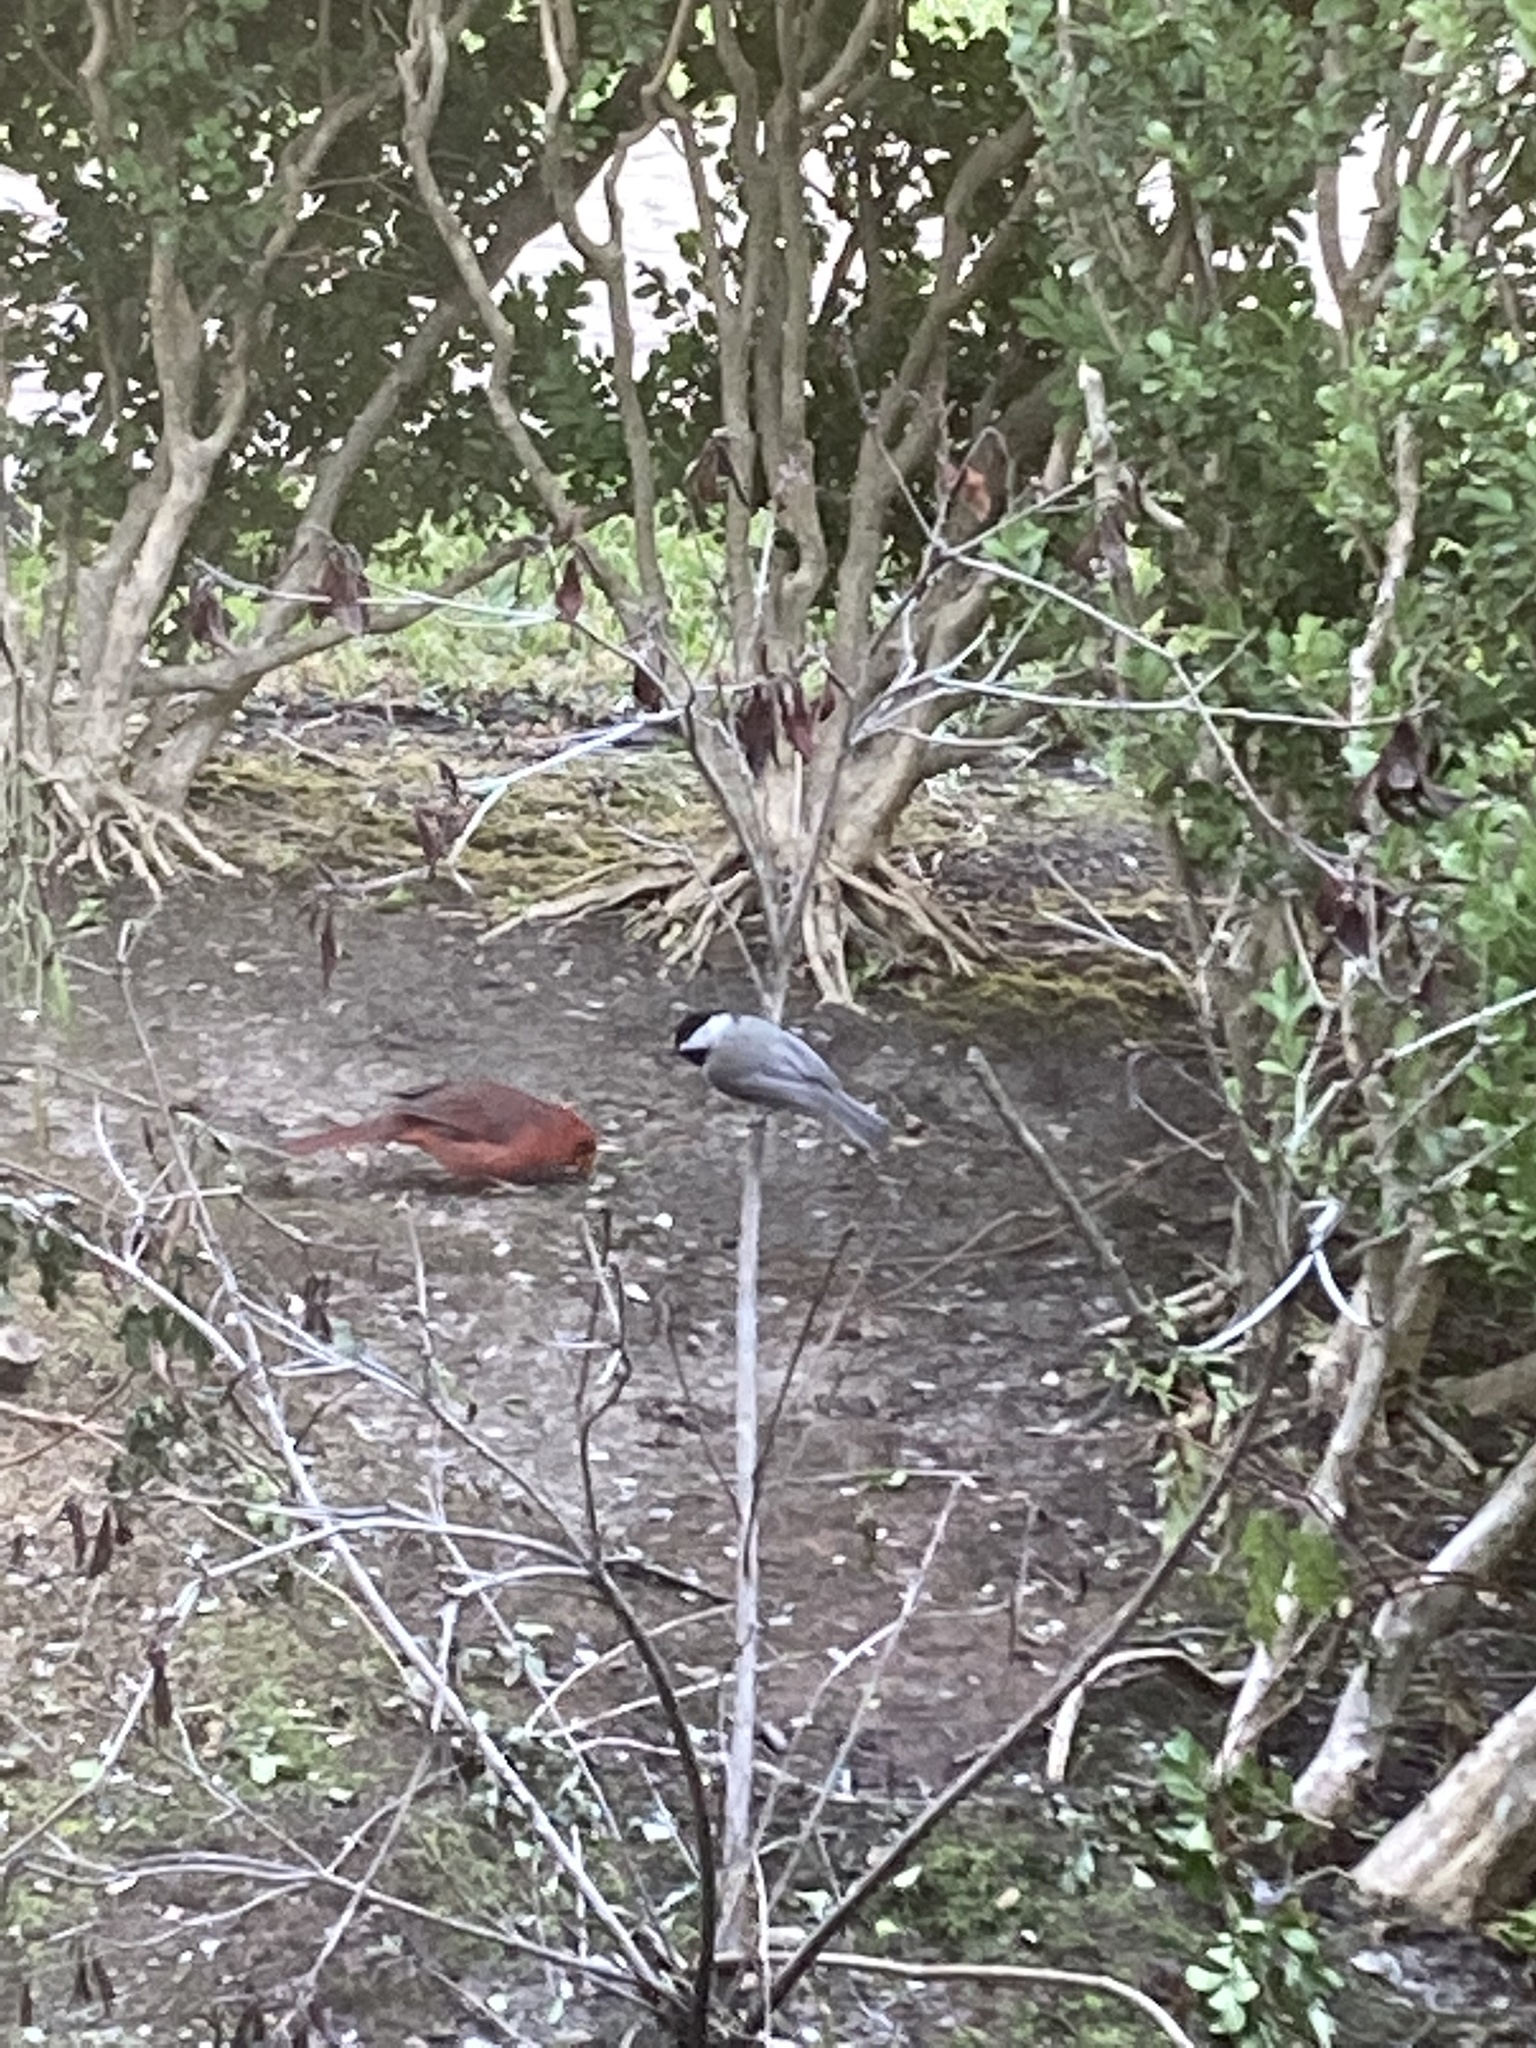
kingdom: Animalia
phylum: Chordata
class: Aves
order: Passeriformes
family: Paridae
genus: Poecile
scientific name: Poecile carolinensis
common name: Carolina chickadee
